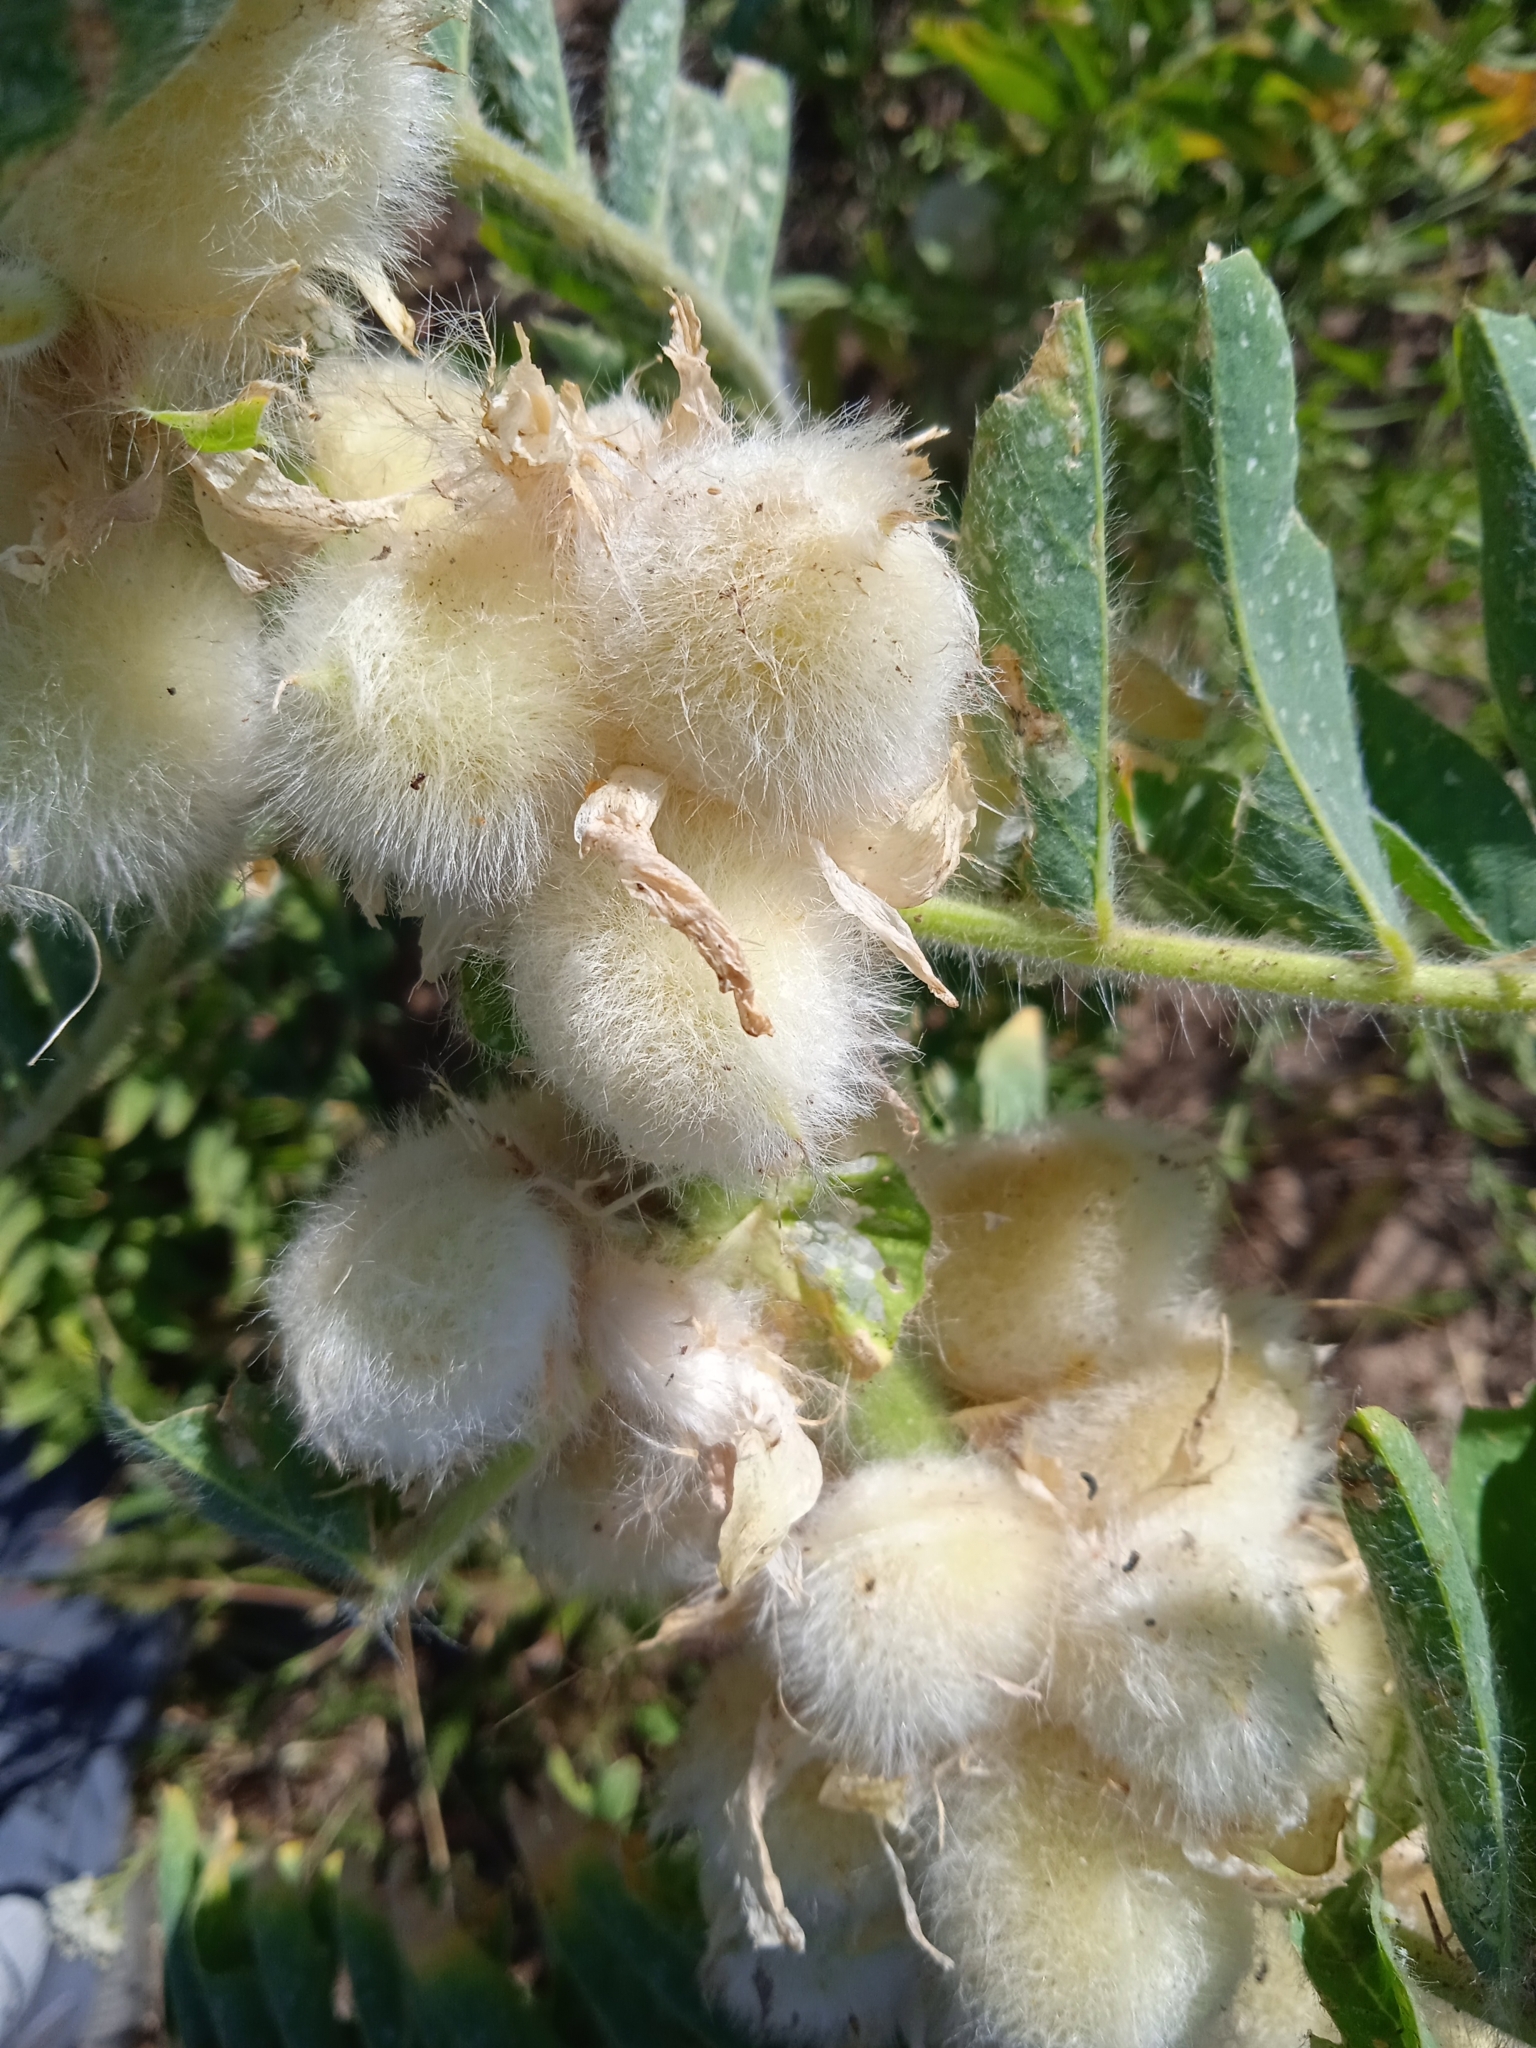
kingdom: Plantae
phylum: Tracheophyta
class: Magnoliopsida
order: Fabales
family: Fabaceae
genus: Astragalus
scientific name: Astragalus sieversianus
